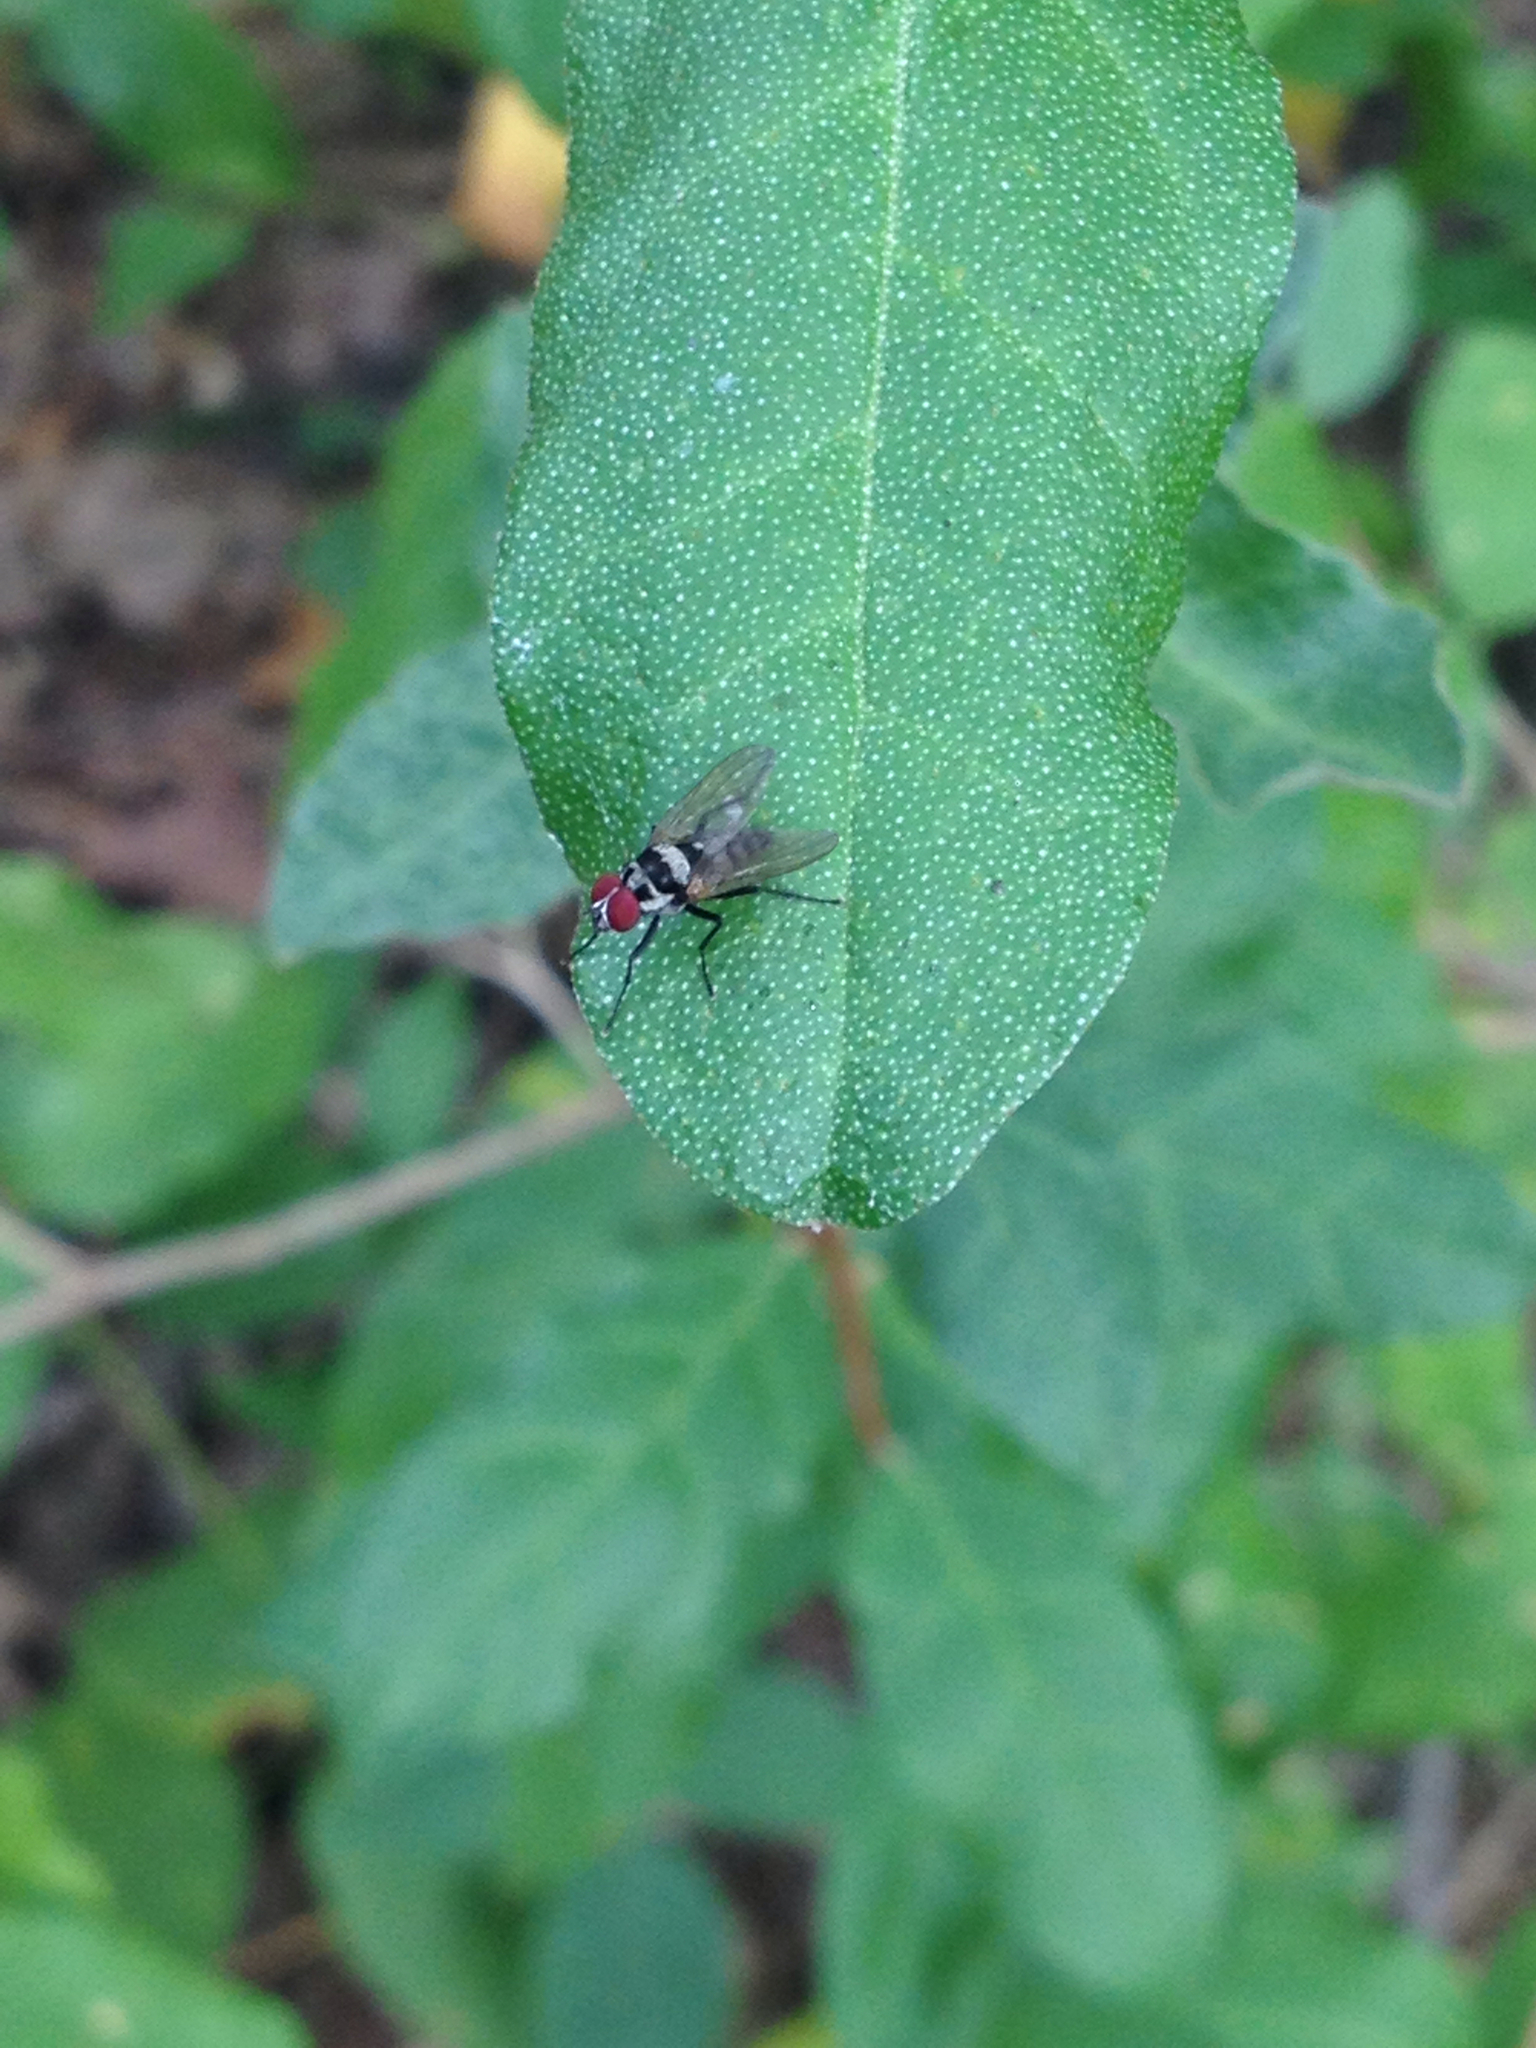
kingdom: Animalia
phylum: Arthropoda
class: Insecta
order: Diptera
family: Anthomyiidae
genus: Anthomyia
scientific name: Anthomyia oculifera
